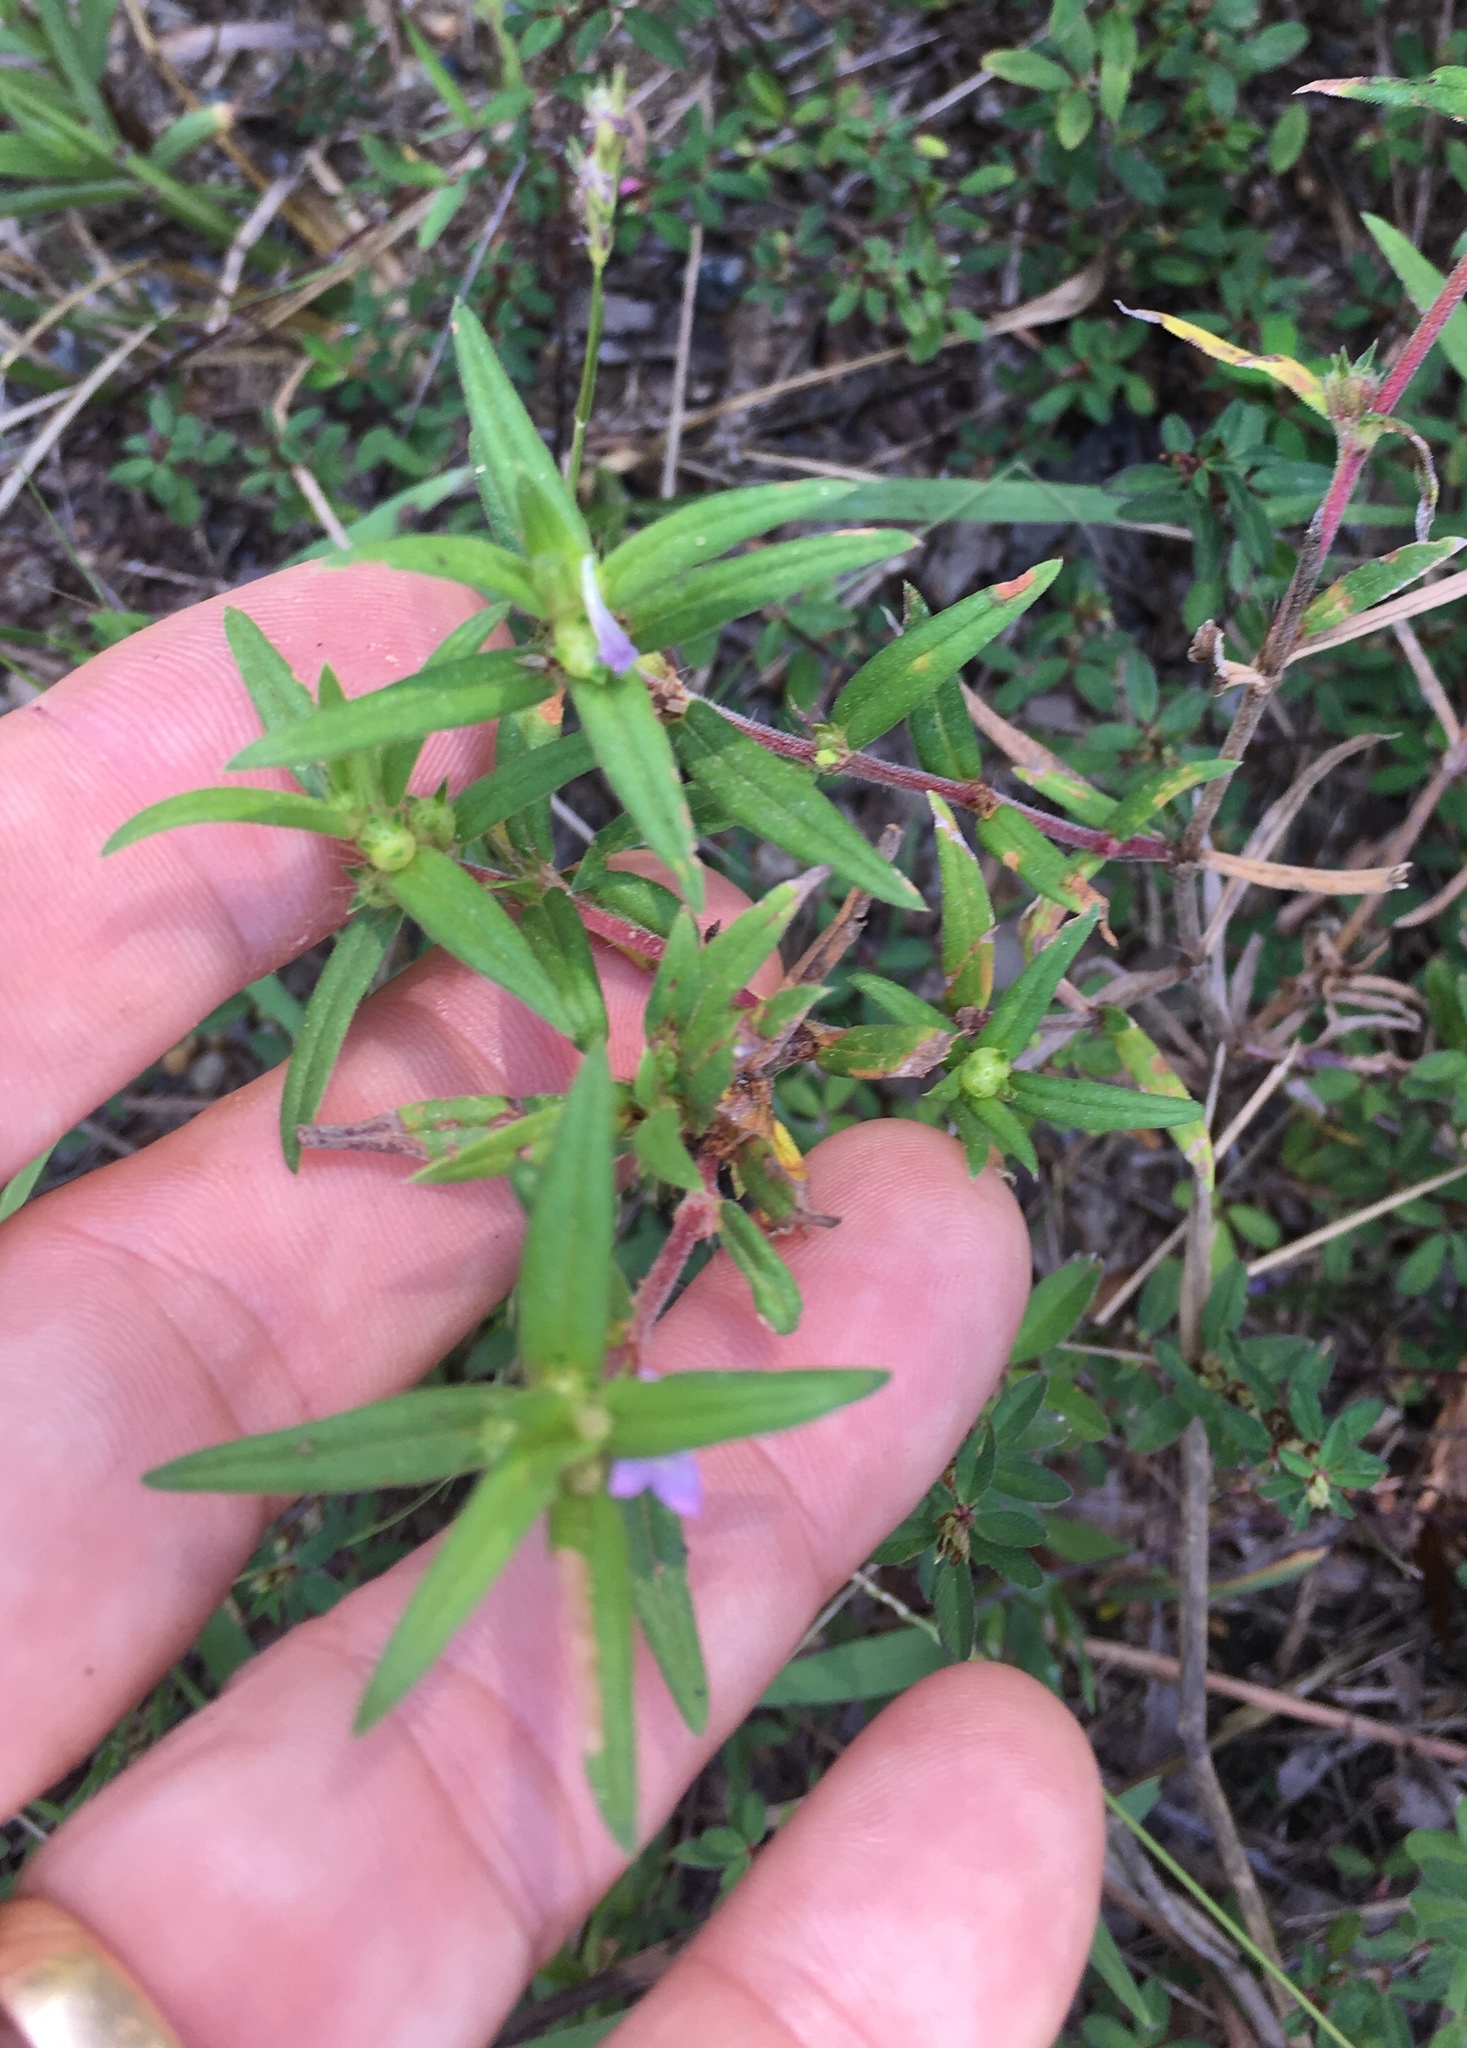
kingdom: Plantae
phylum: Tracheophyta
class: Magnoliopsida
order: Gentianales
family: Rubiaceae
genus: Hexasepalum
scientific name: Hexasepalum teres
